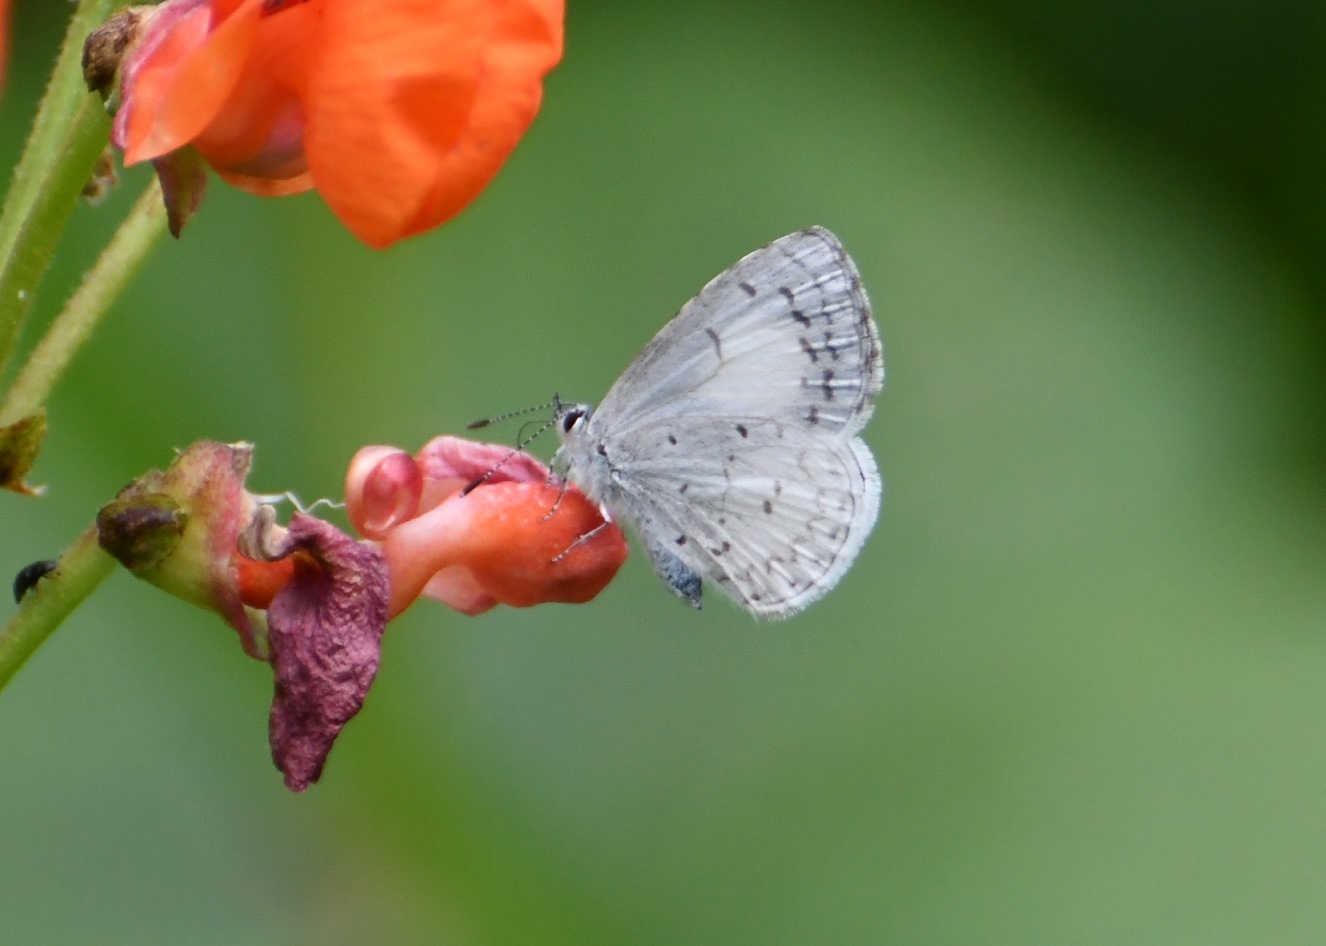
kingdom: Animalia
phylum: Arthropoda
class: Insecta
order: Lepidoptera
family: Lycaenidae
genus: Celastrina
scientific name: Celastrina ladon
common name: Spring azure
